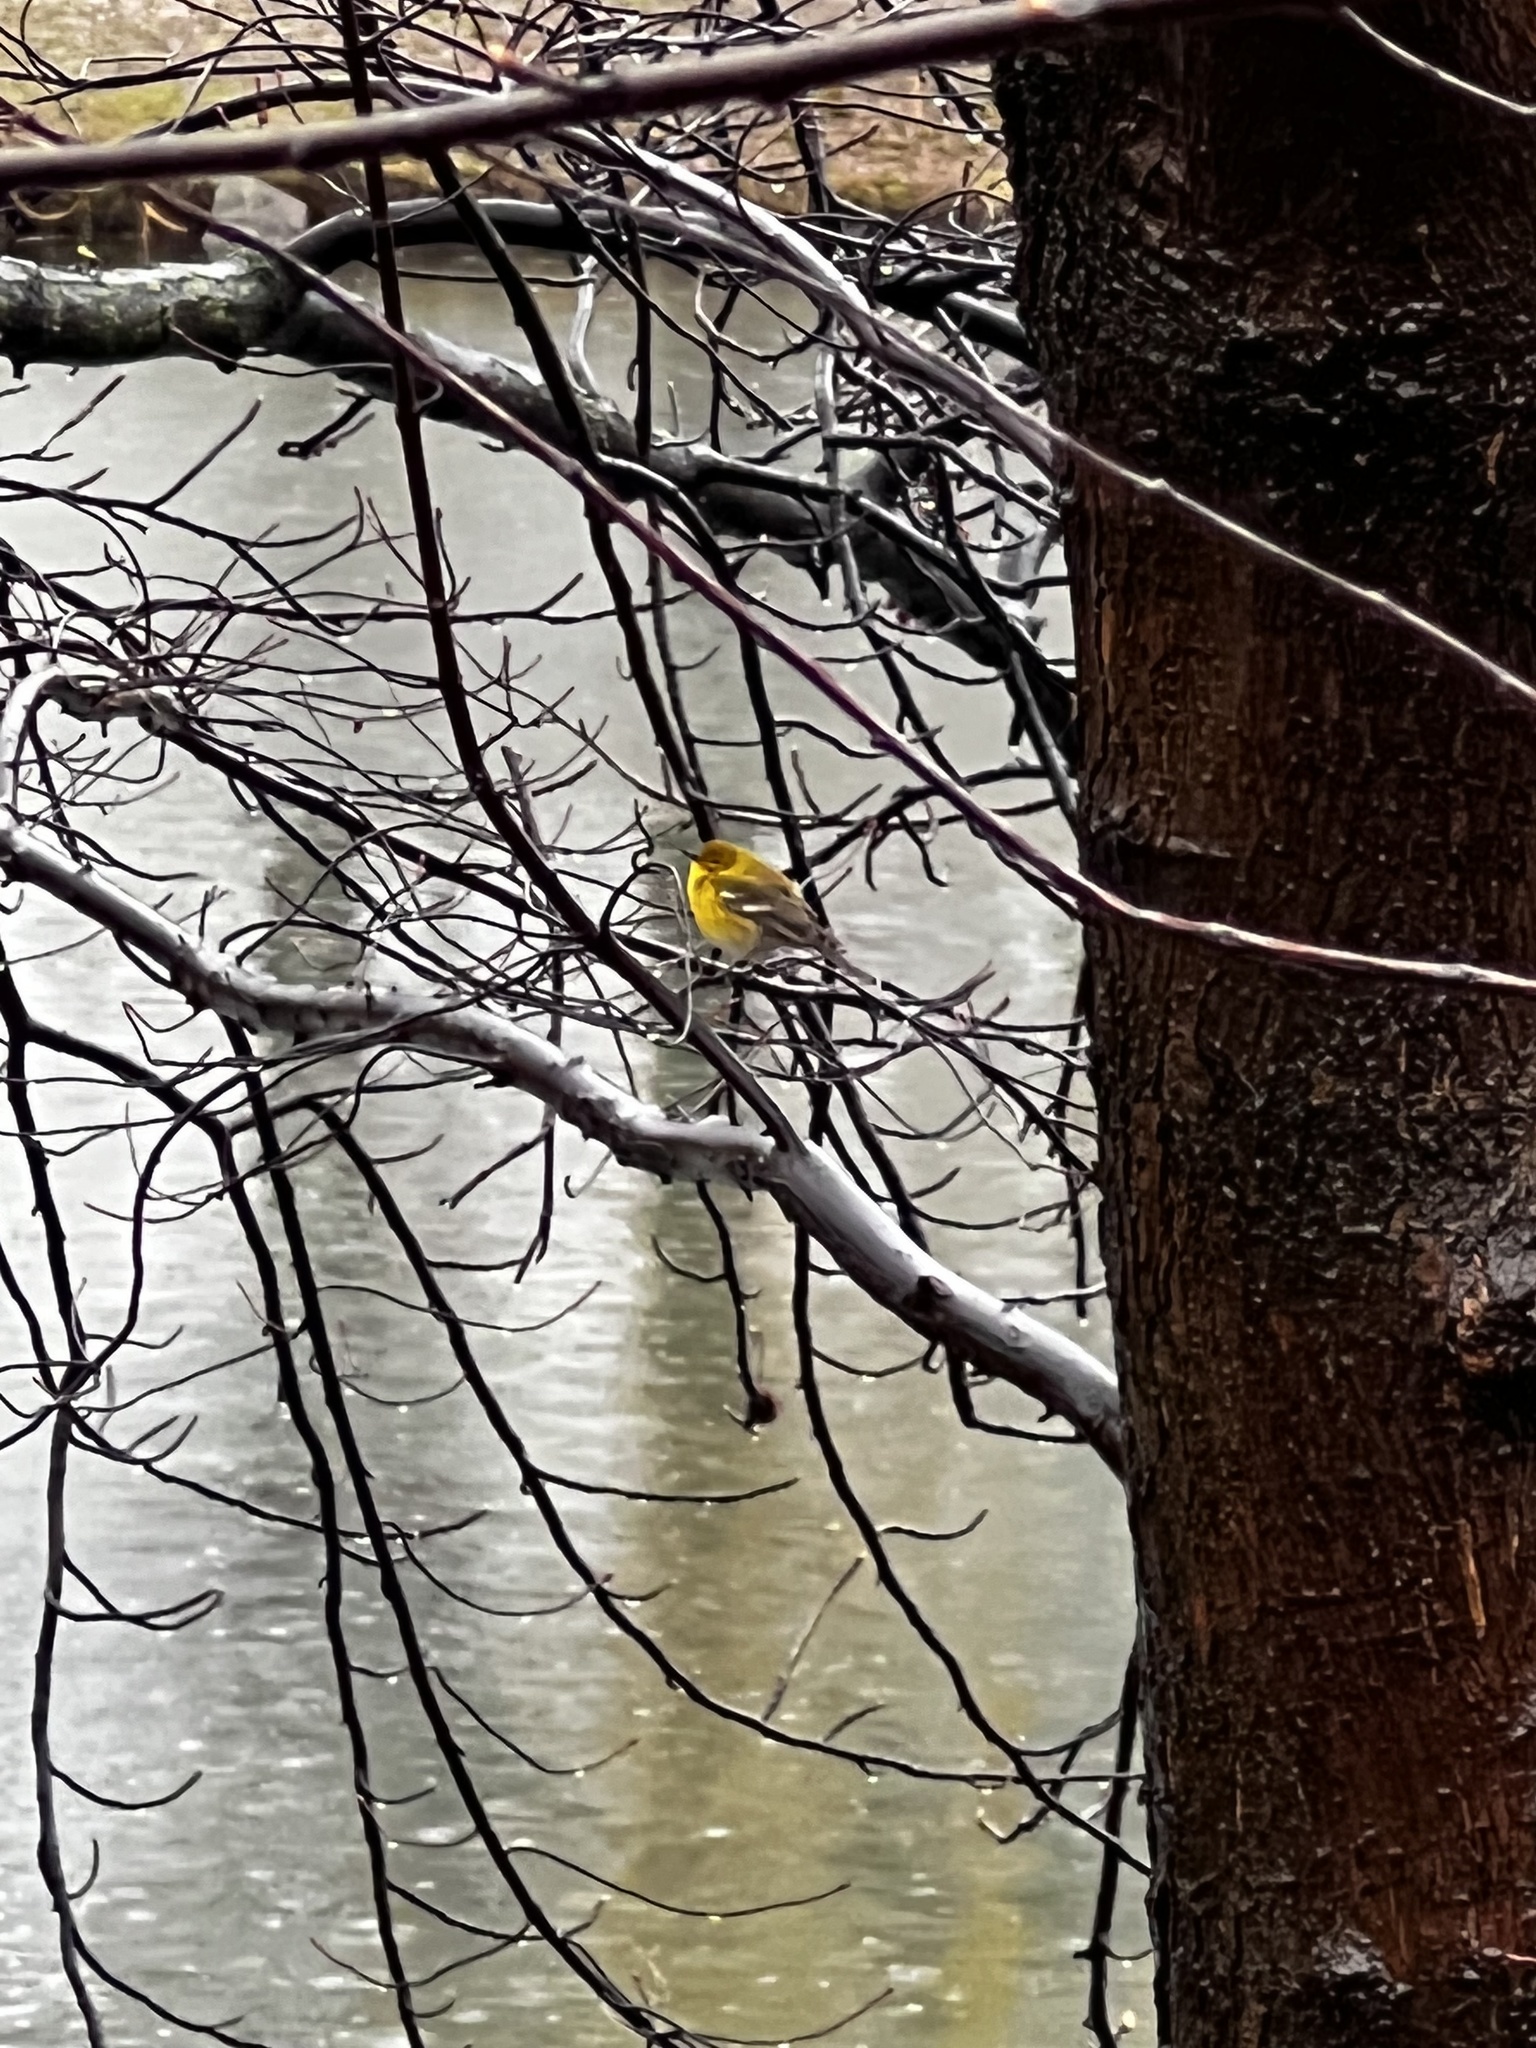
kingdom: Animalia
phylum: Chordata
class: Aves
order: Passeriformes
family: Parulidae
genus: Setophaga
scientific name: Setophaga pinus
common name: Pine warbler
